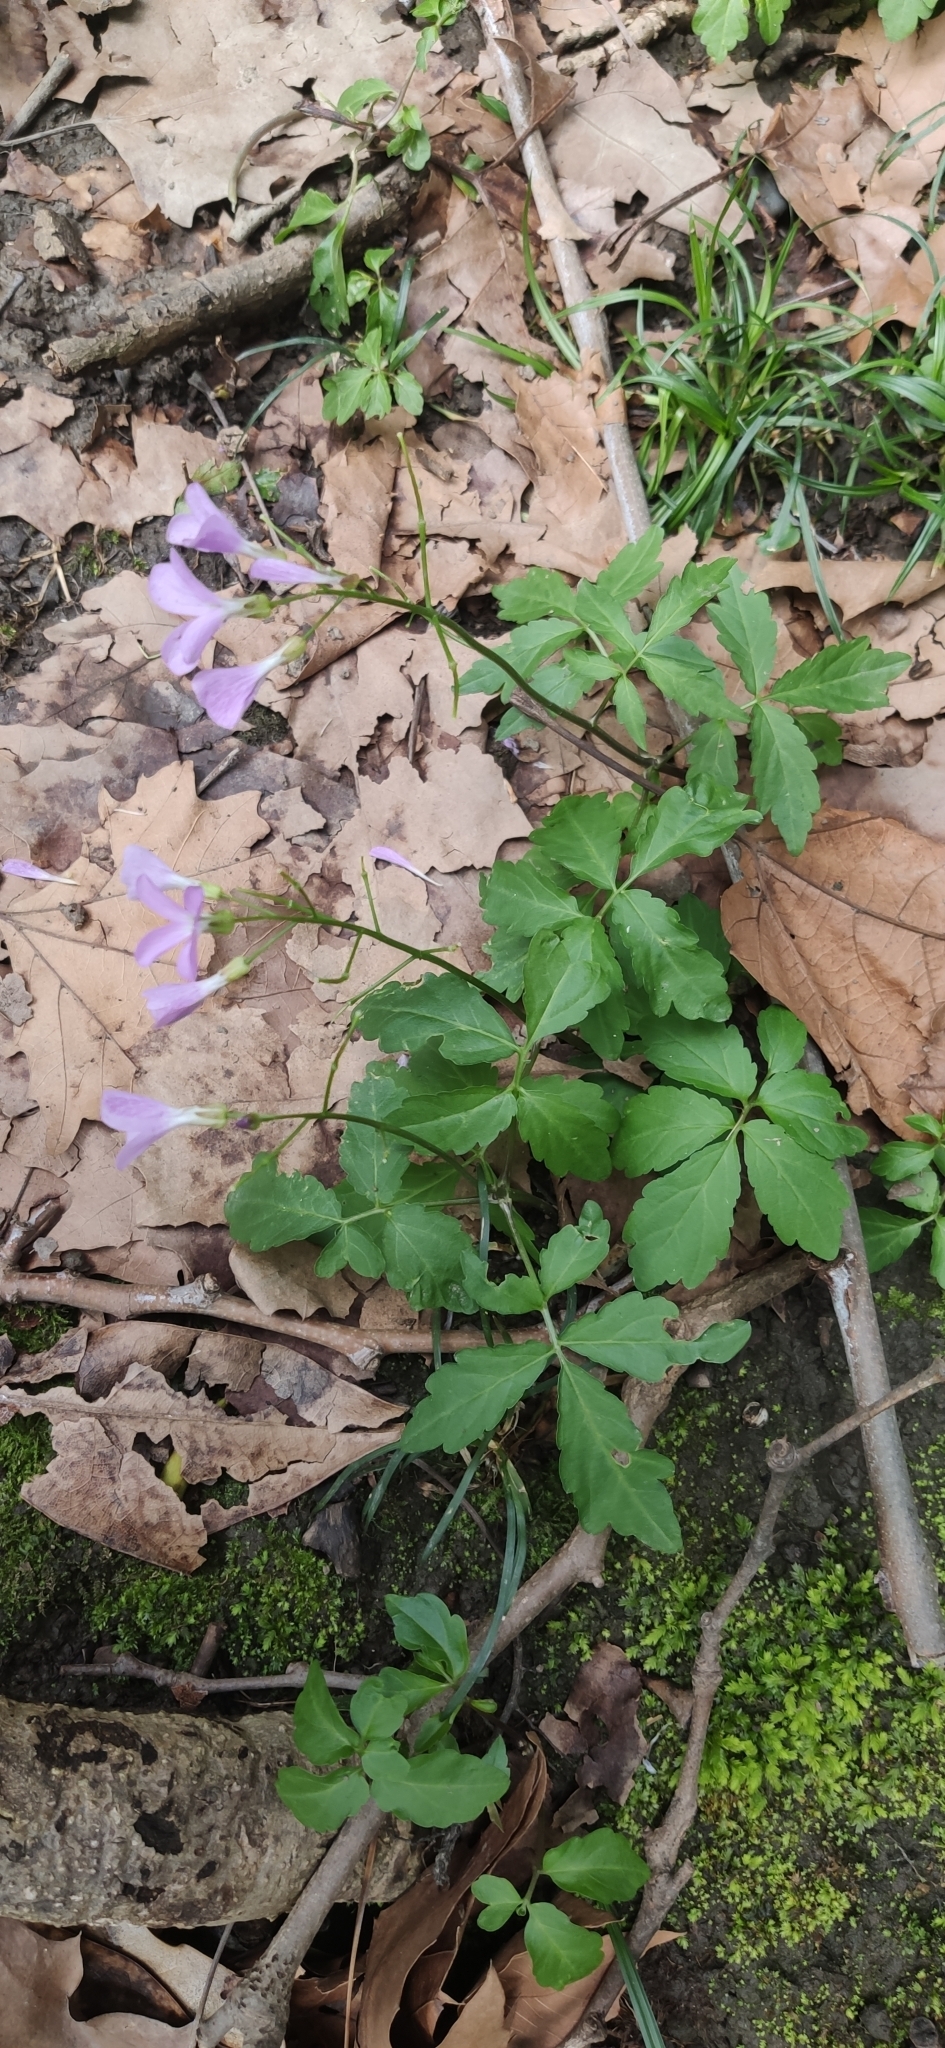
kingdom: Plantae
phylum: Tracheophyta
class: Magnoliopsida
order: Brassicales
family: Brassicaceae
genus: Cardamine
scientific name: Cardamine quinquefolia
